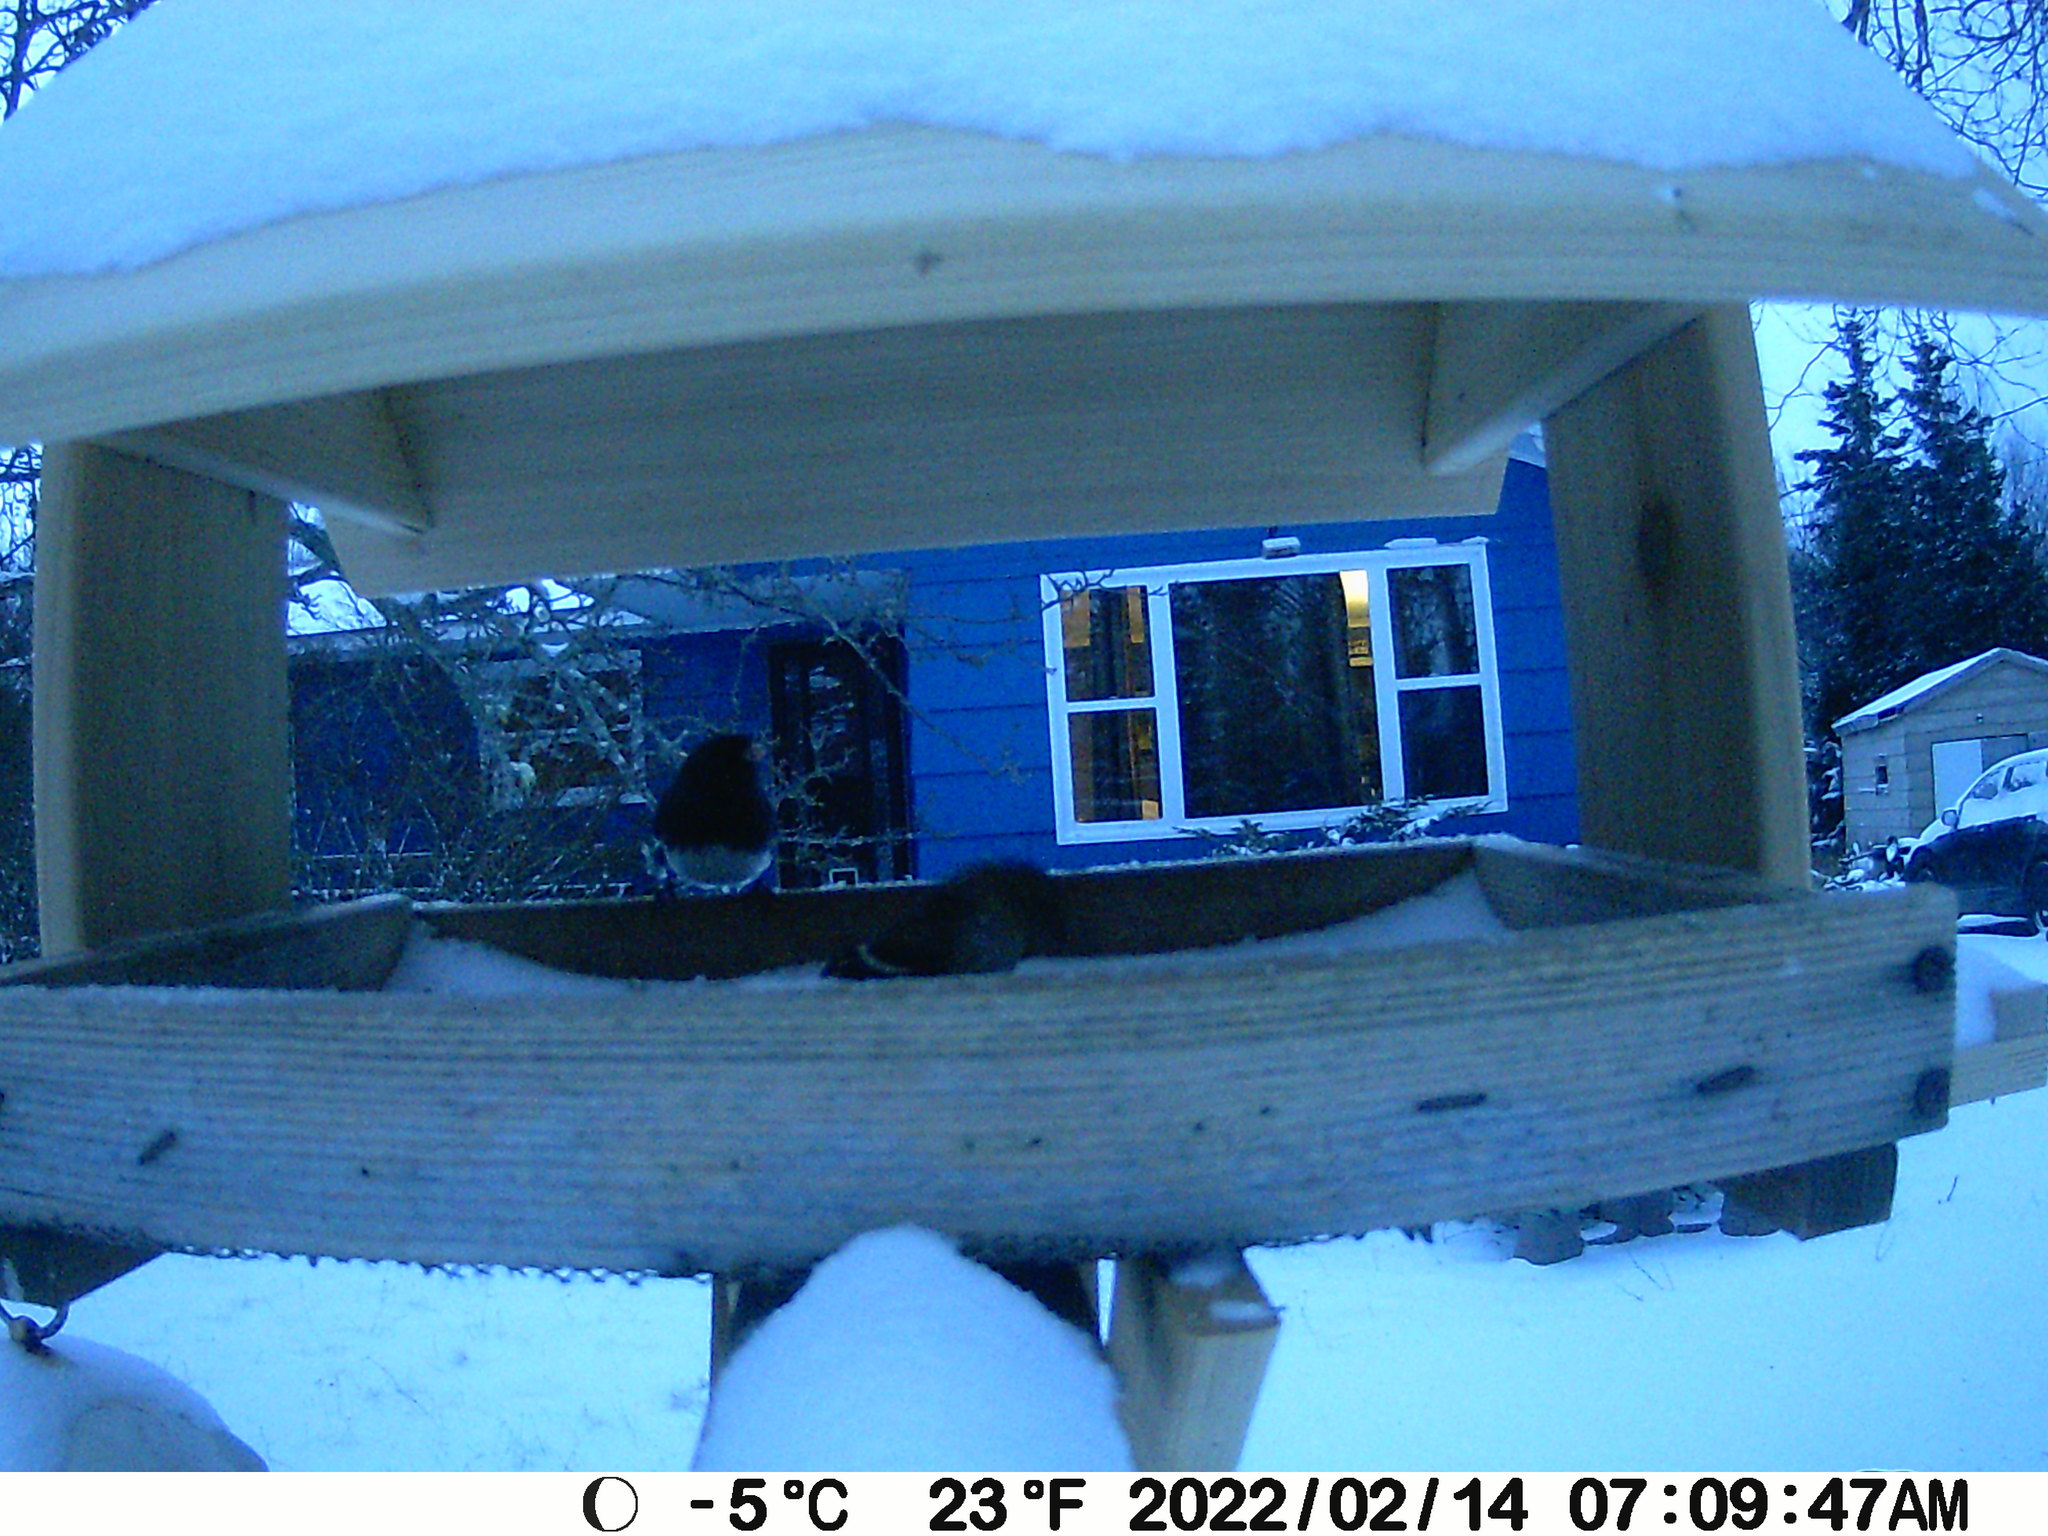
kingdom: Animalia
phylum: Chordata
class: Aves
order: Passeriformes
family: Passerellidae
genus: Junco
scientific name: Junco hyemalis
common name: Dark-eyed junco
